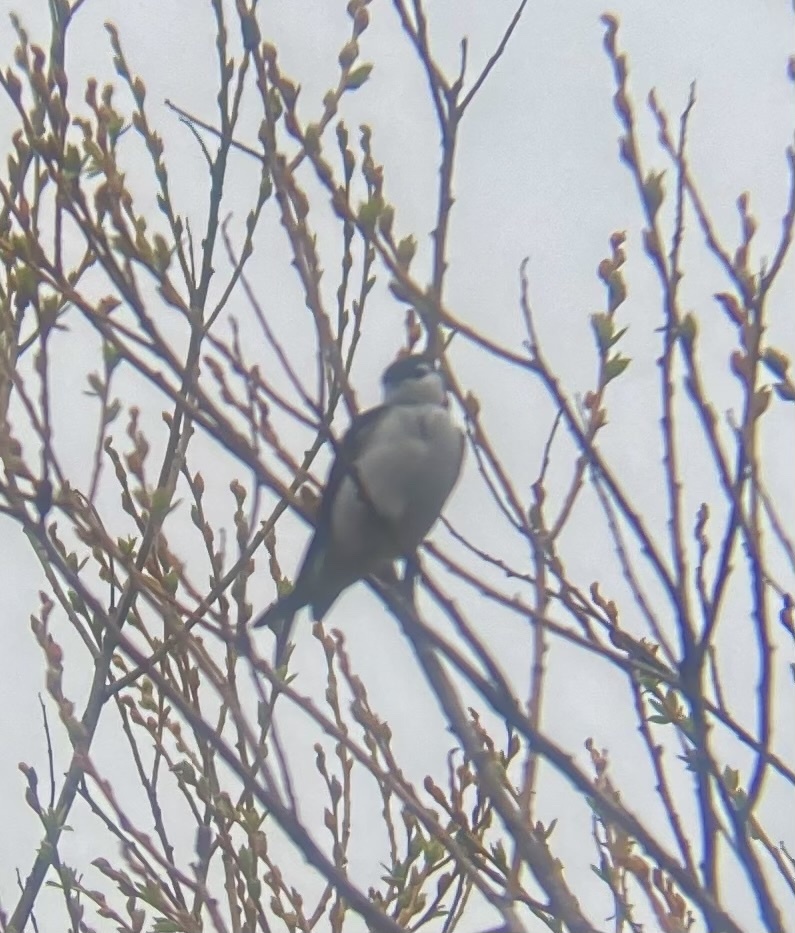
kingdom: Animalia
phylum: Chordata
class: Aves
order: Passeriformes
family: Hirundinidae
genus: Tachycineta
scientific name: Tachycineta thalassina
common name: Violet-green swallow
